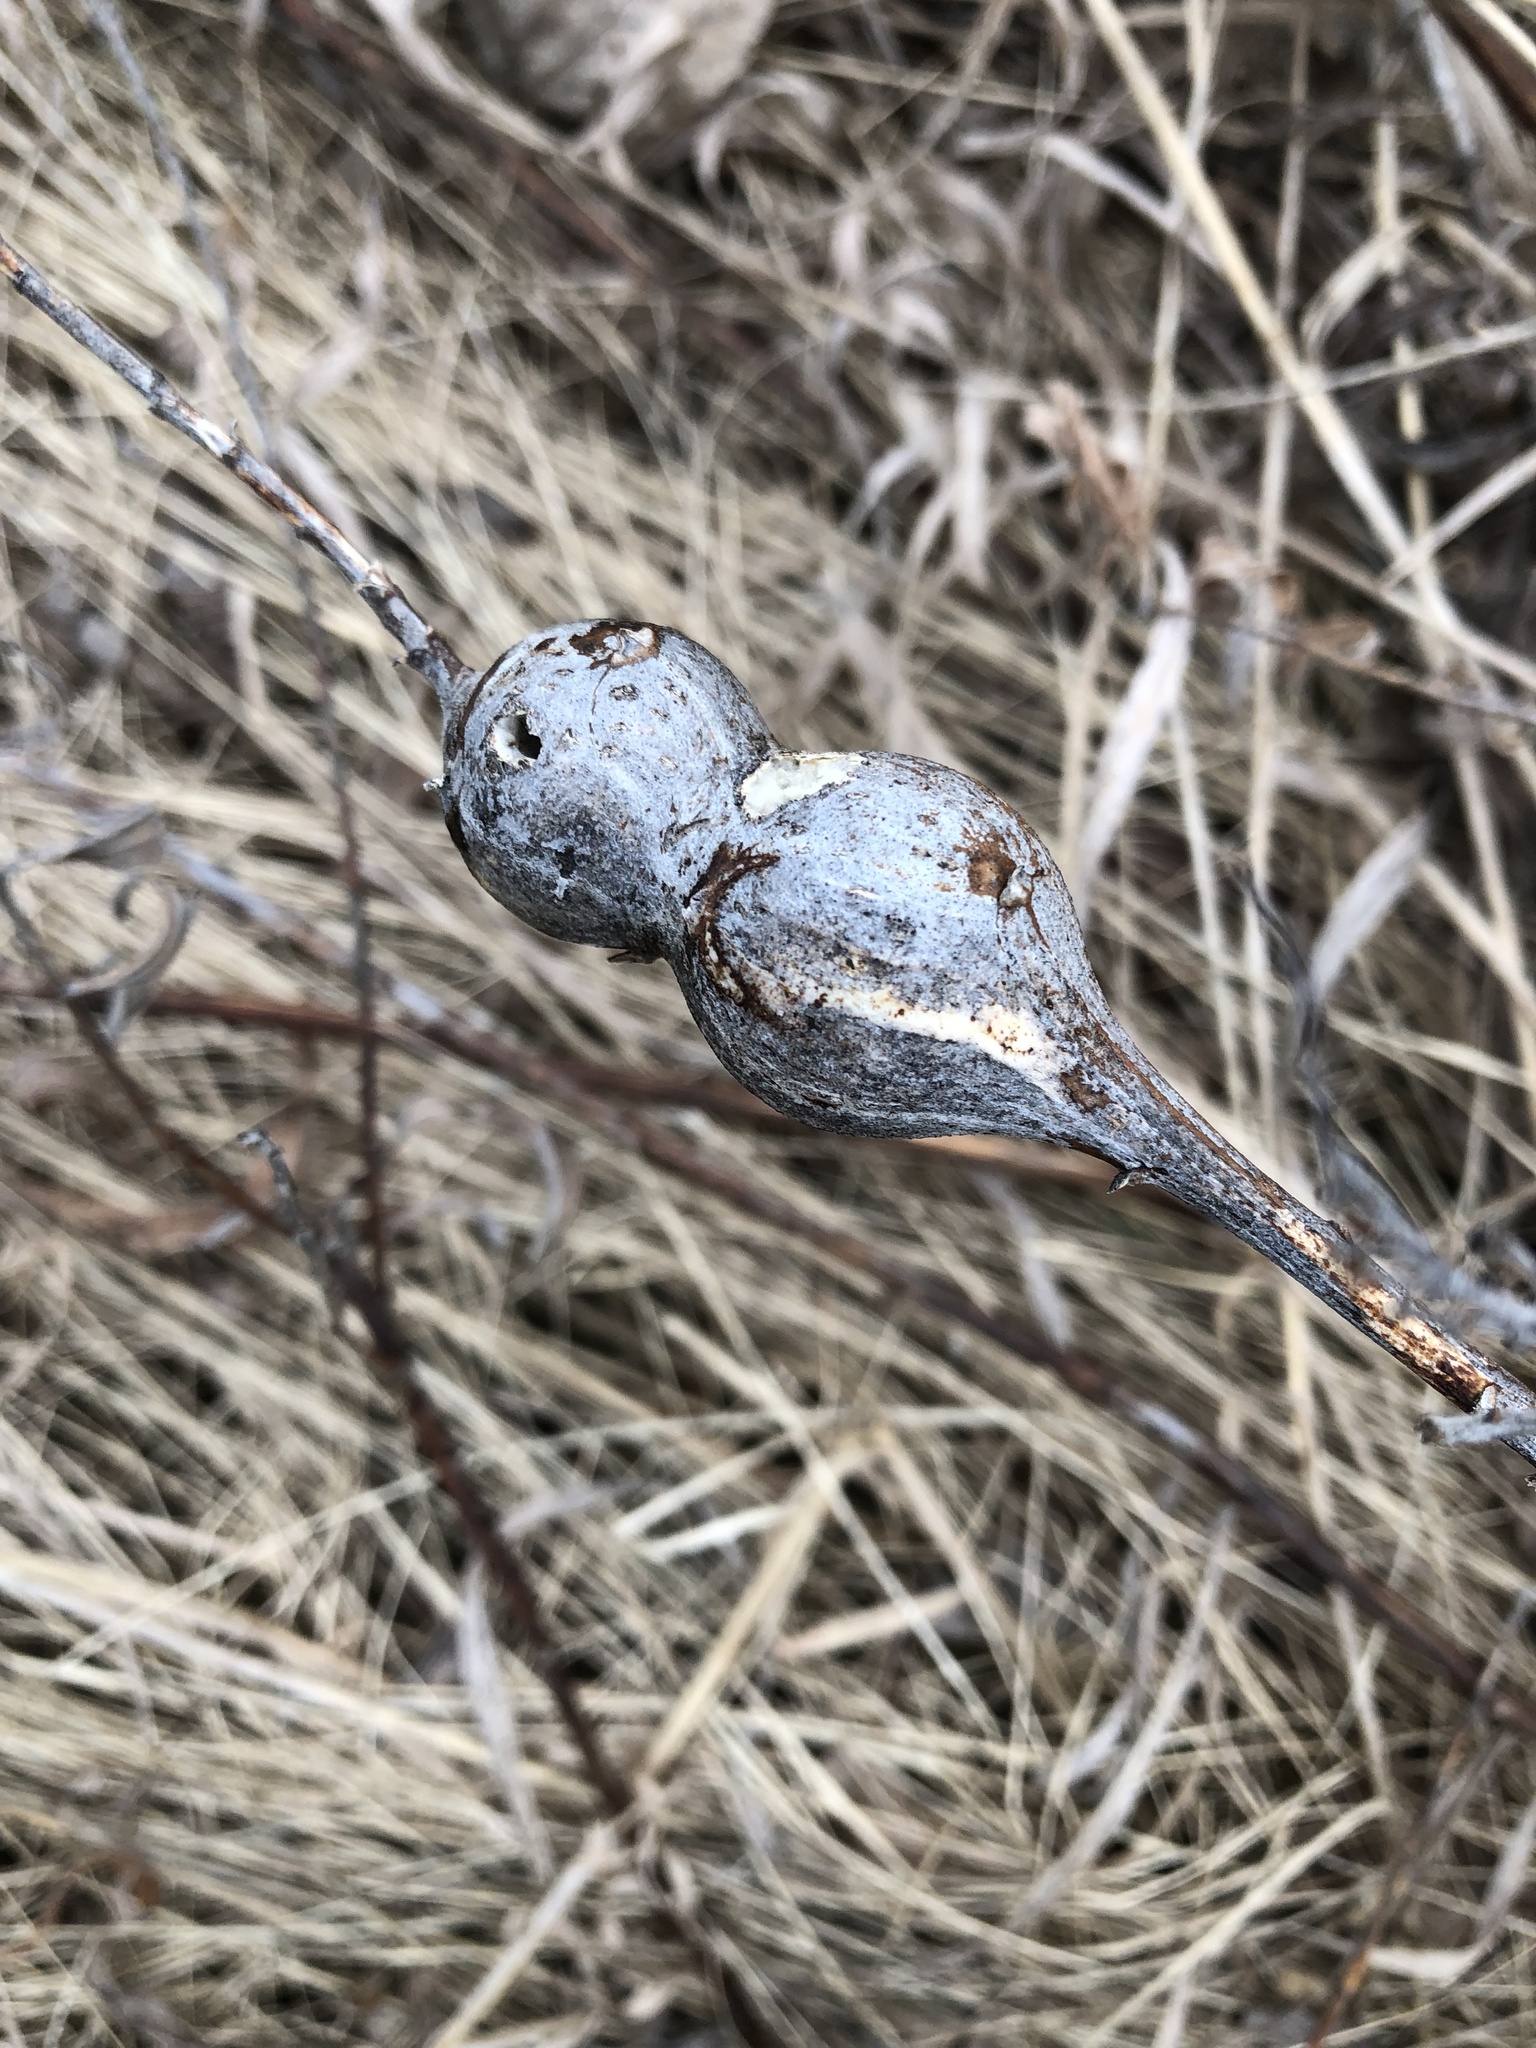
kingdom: Animalia
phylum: Arthropoda
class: Insecta
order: Diptera
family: Tephritidae
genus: Eurosta
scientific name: Eurosta solidaginis
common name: Goldenrod gall fly
